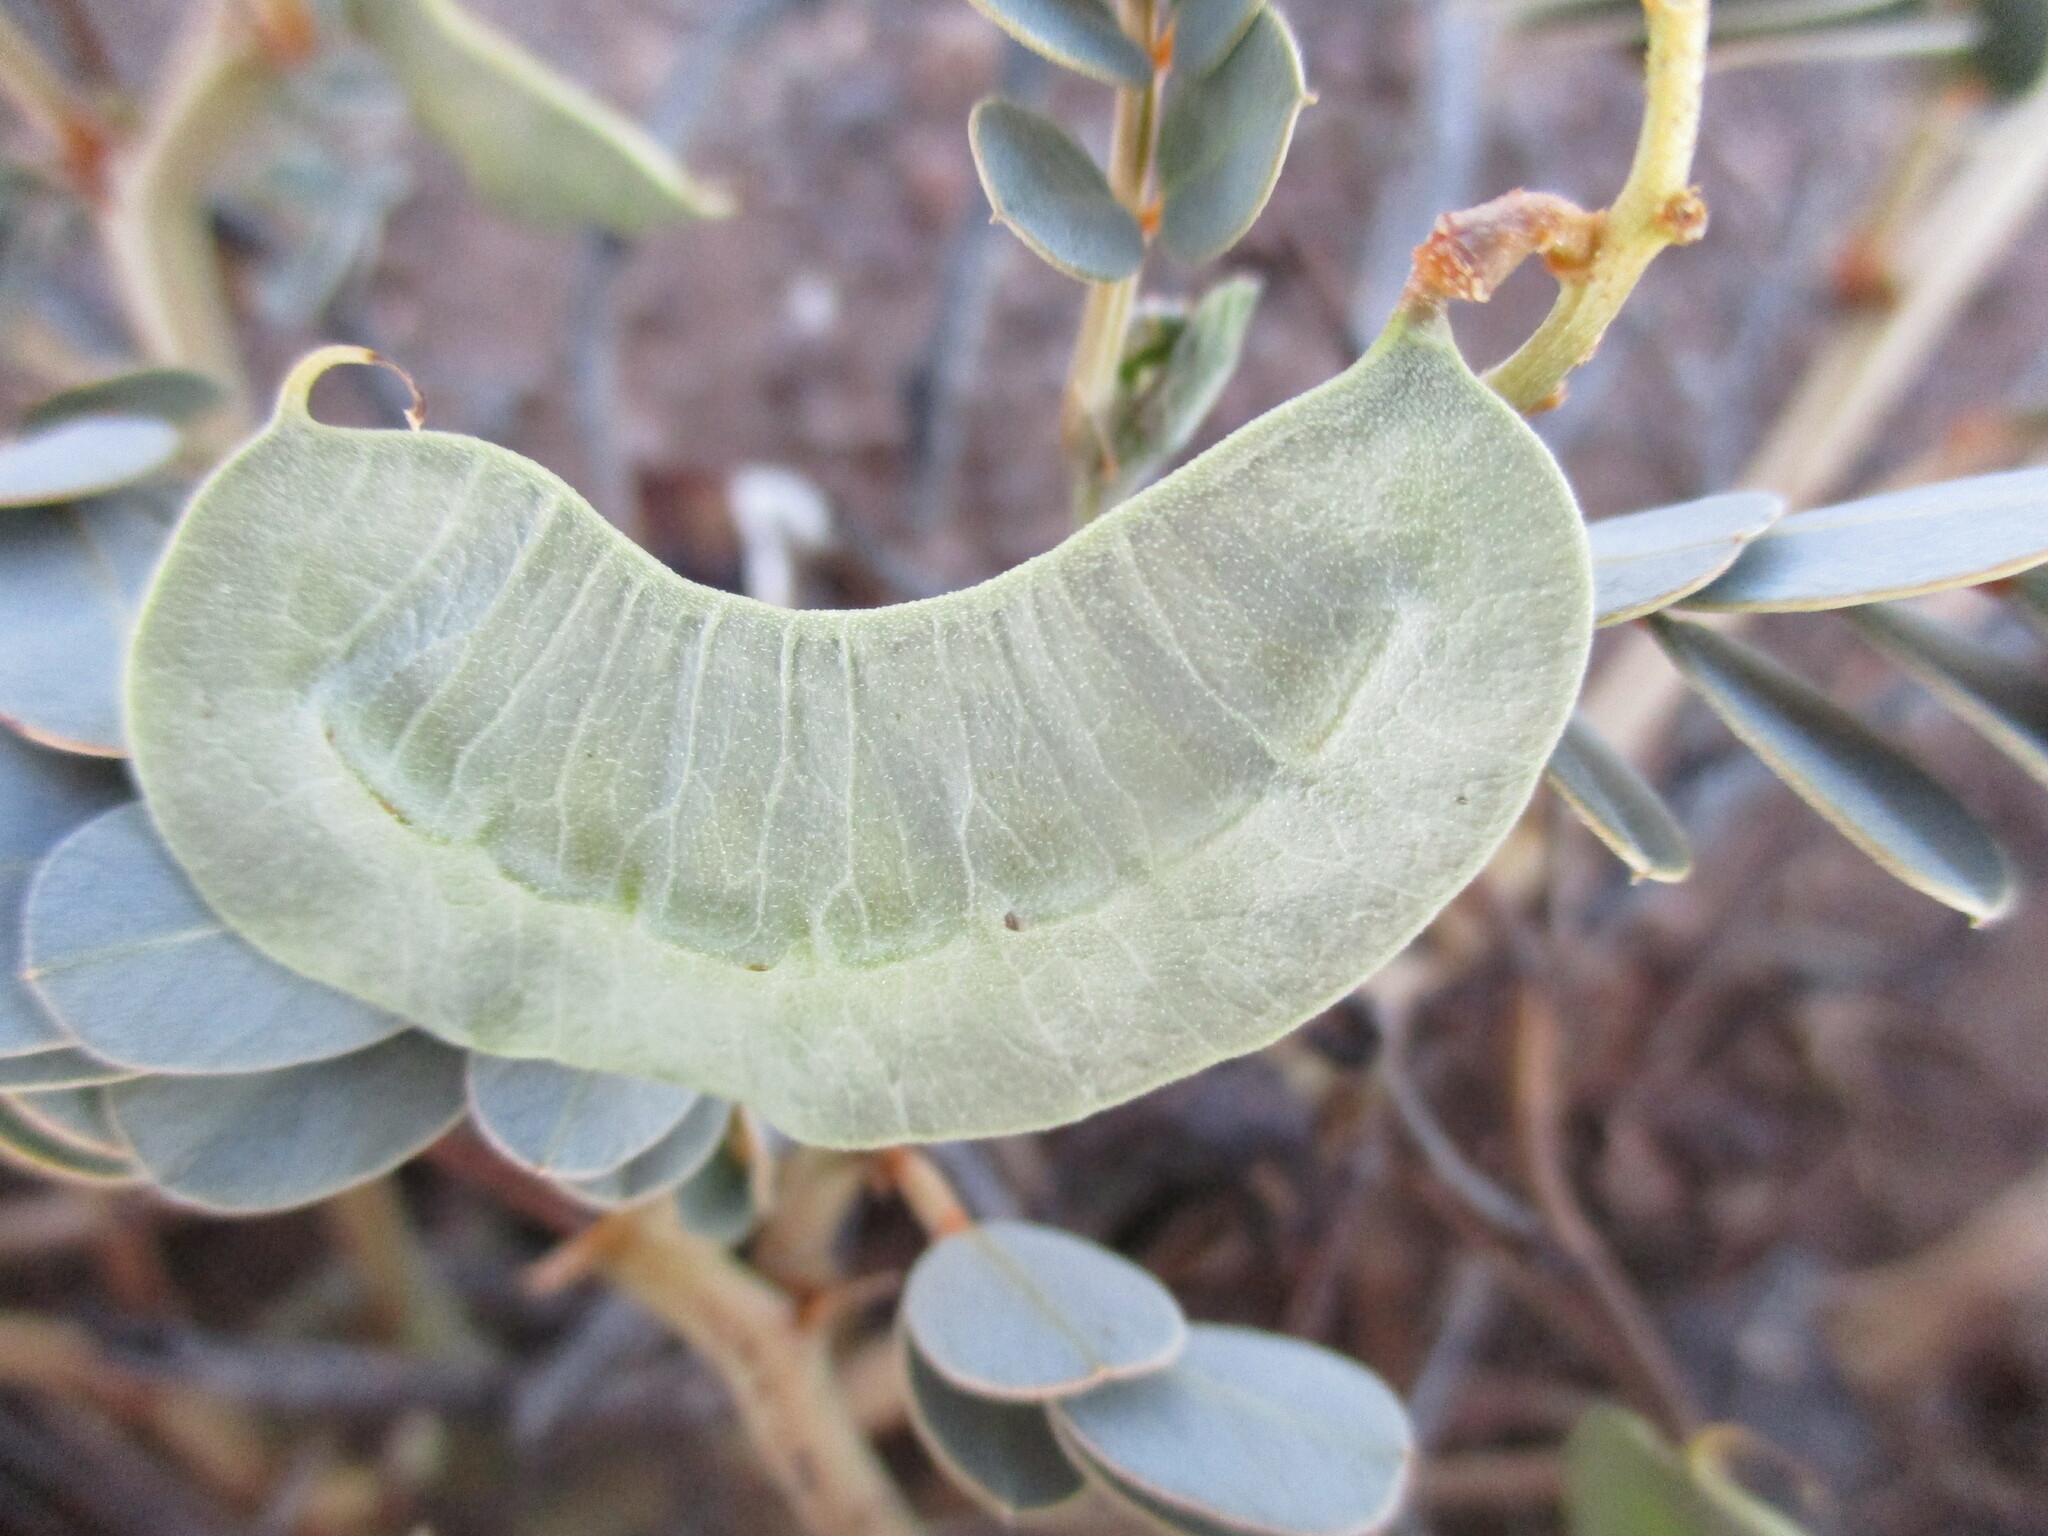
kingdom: Plantae
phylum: Tracheophyta
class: Magnoliopsida
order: Fabales
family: Fabaceae
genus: Senna
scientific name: Senna italica
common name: Port royal senna
